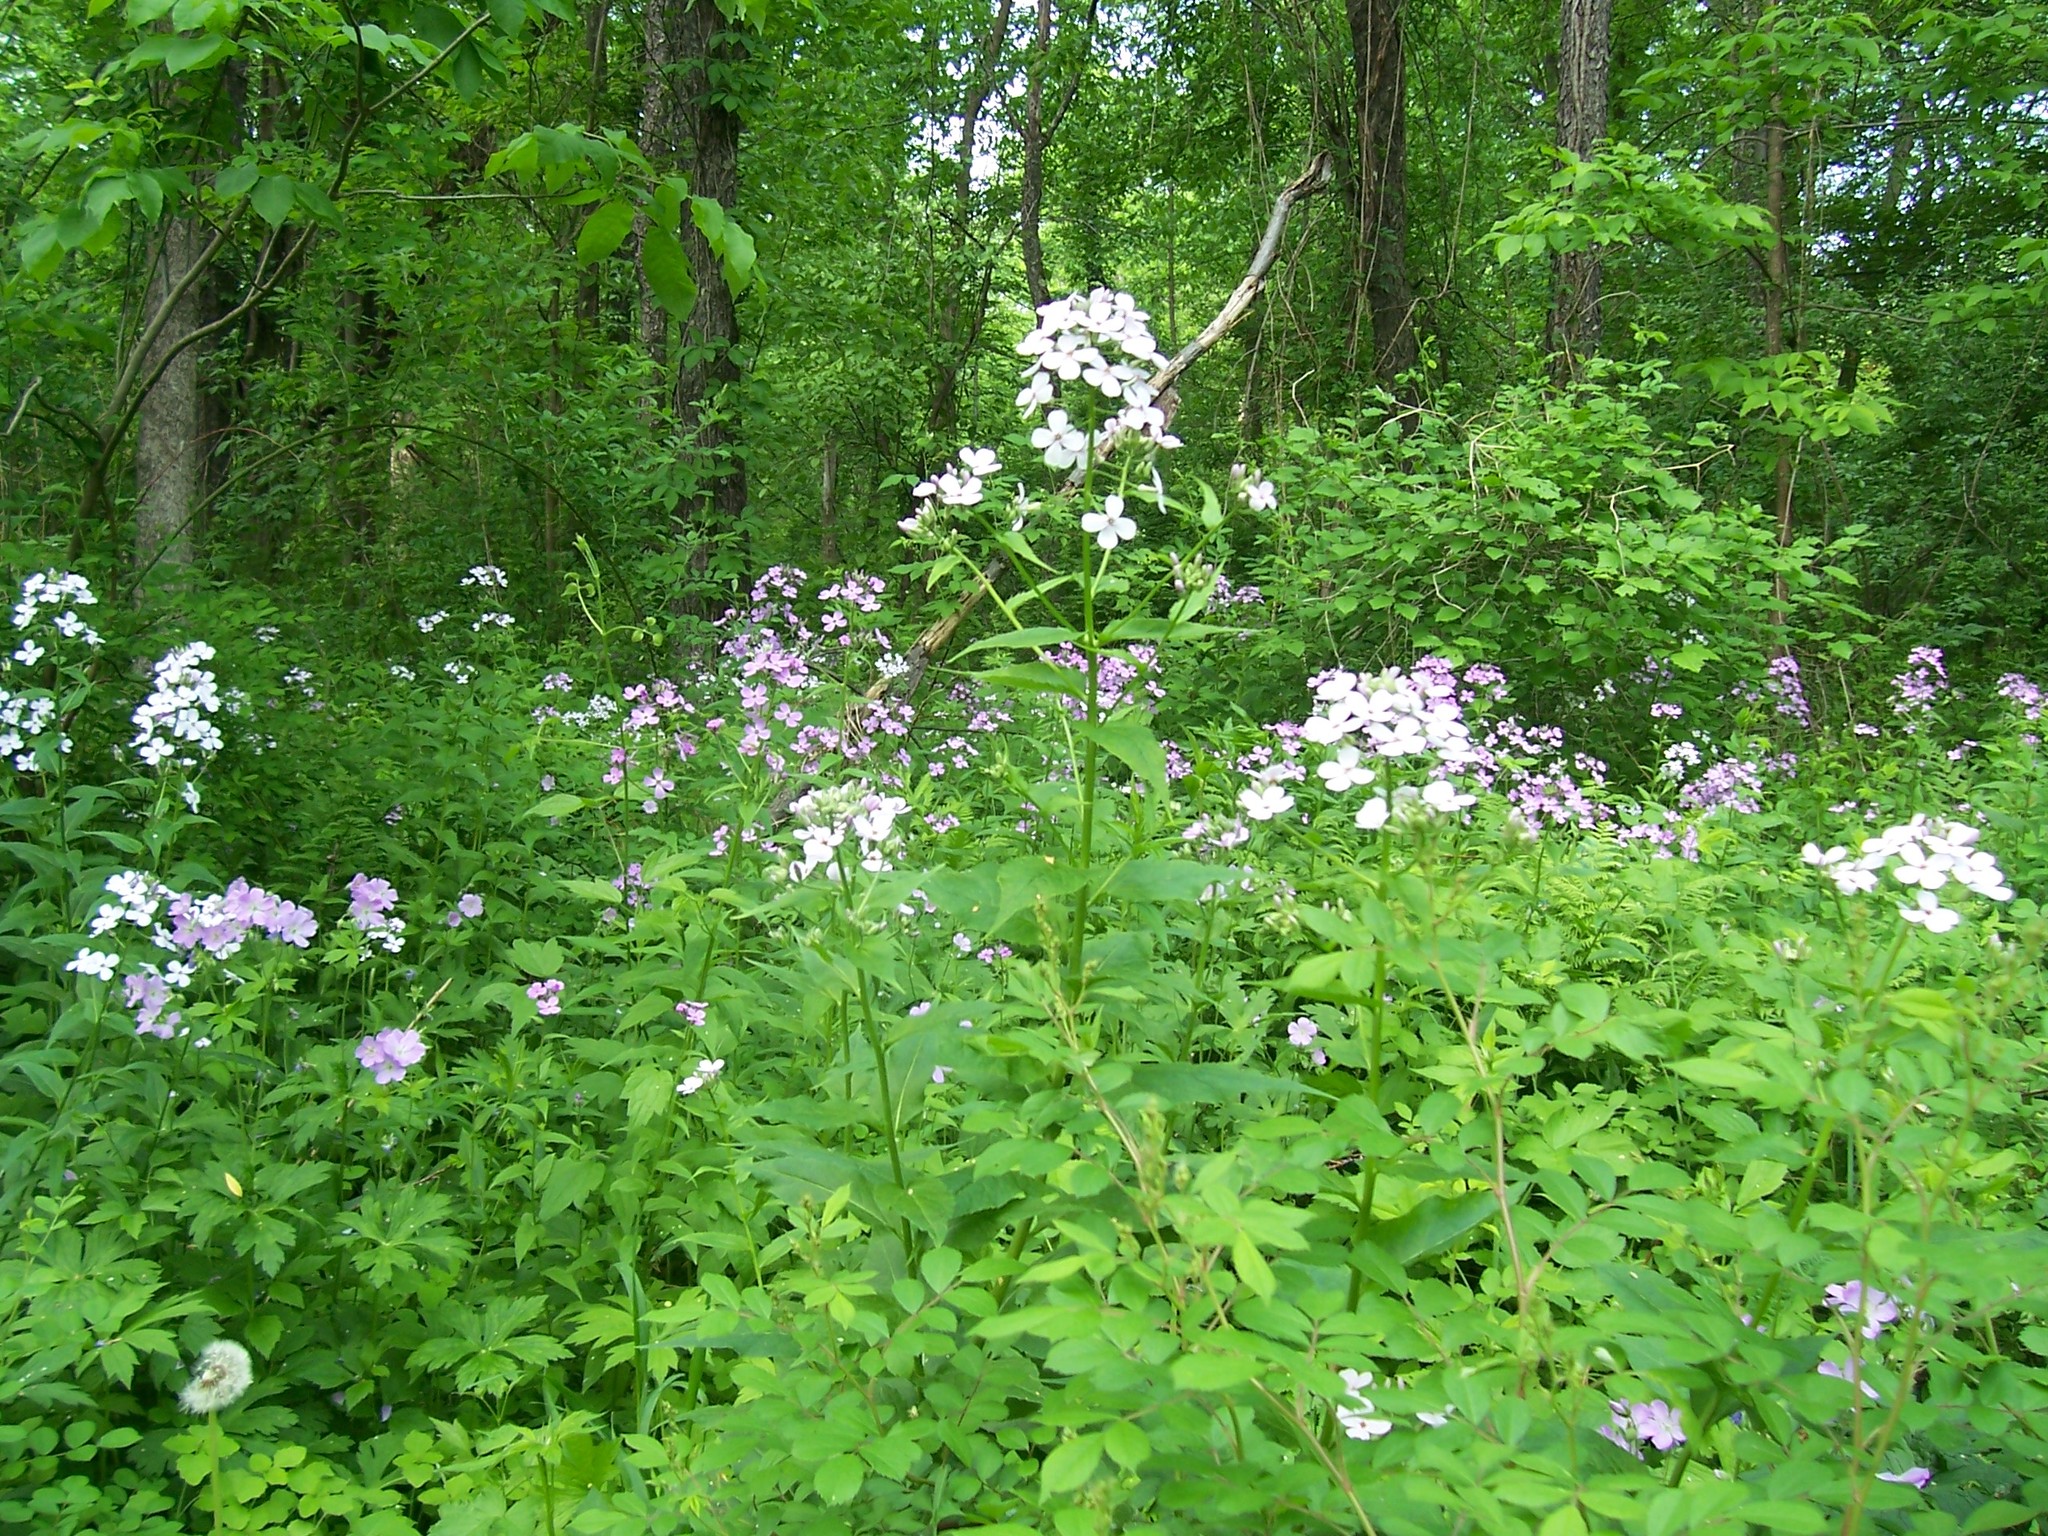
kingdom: Plantae
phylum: Tracheophyta
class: Magnoliopsida
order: Brassicales
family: Brassicaceae
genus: Hesperis
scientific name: Hesperis matronalis
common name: Dame's-violet
